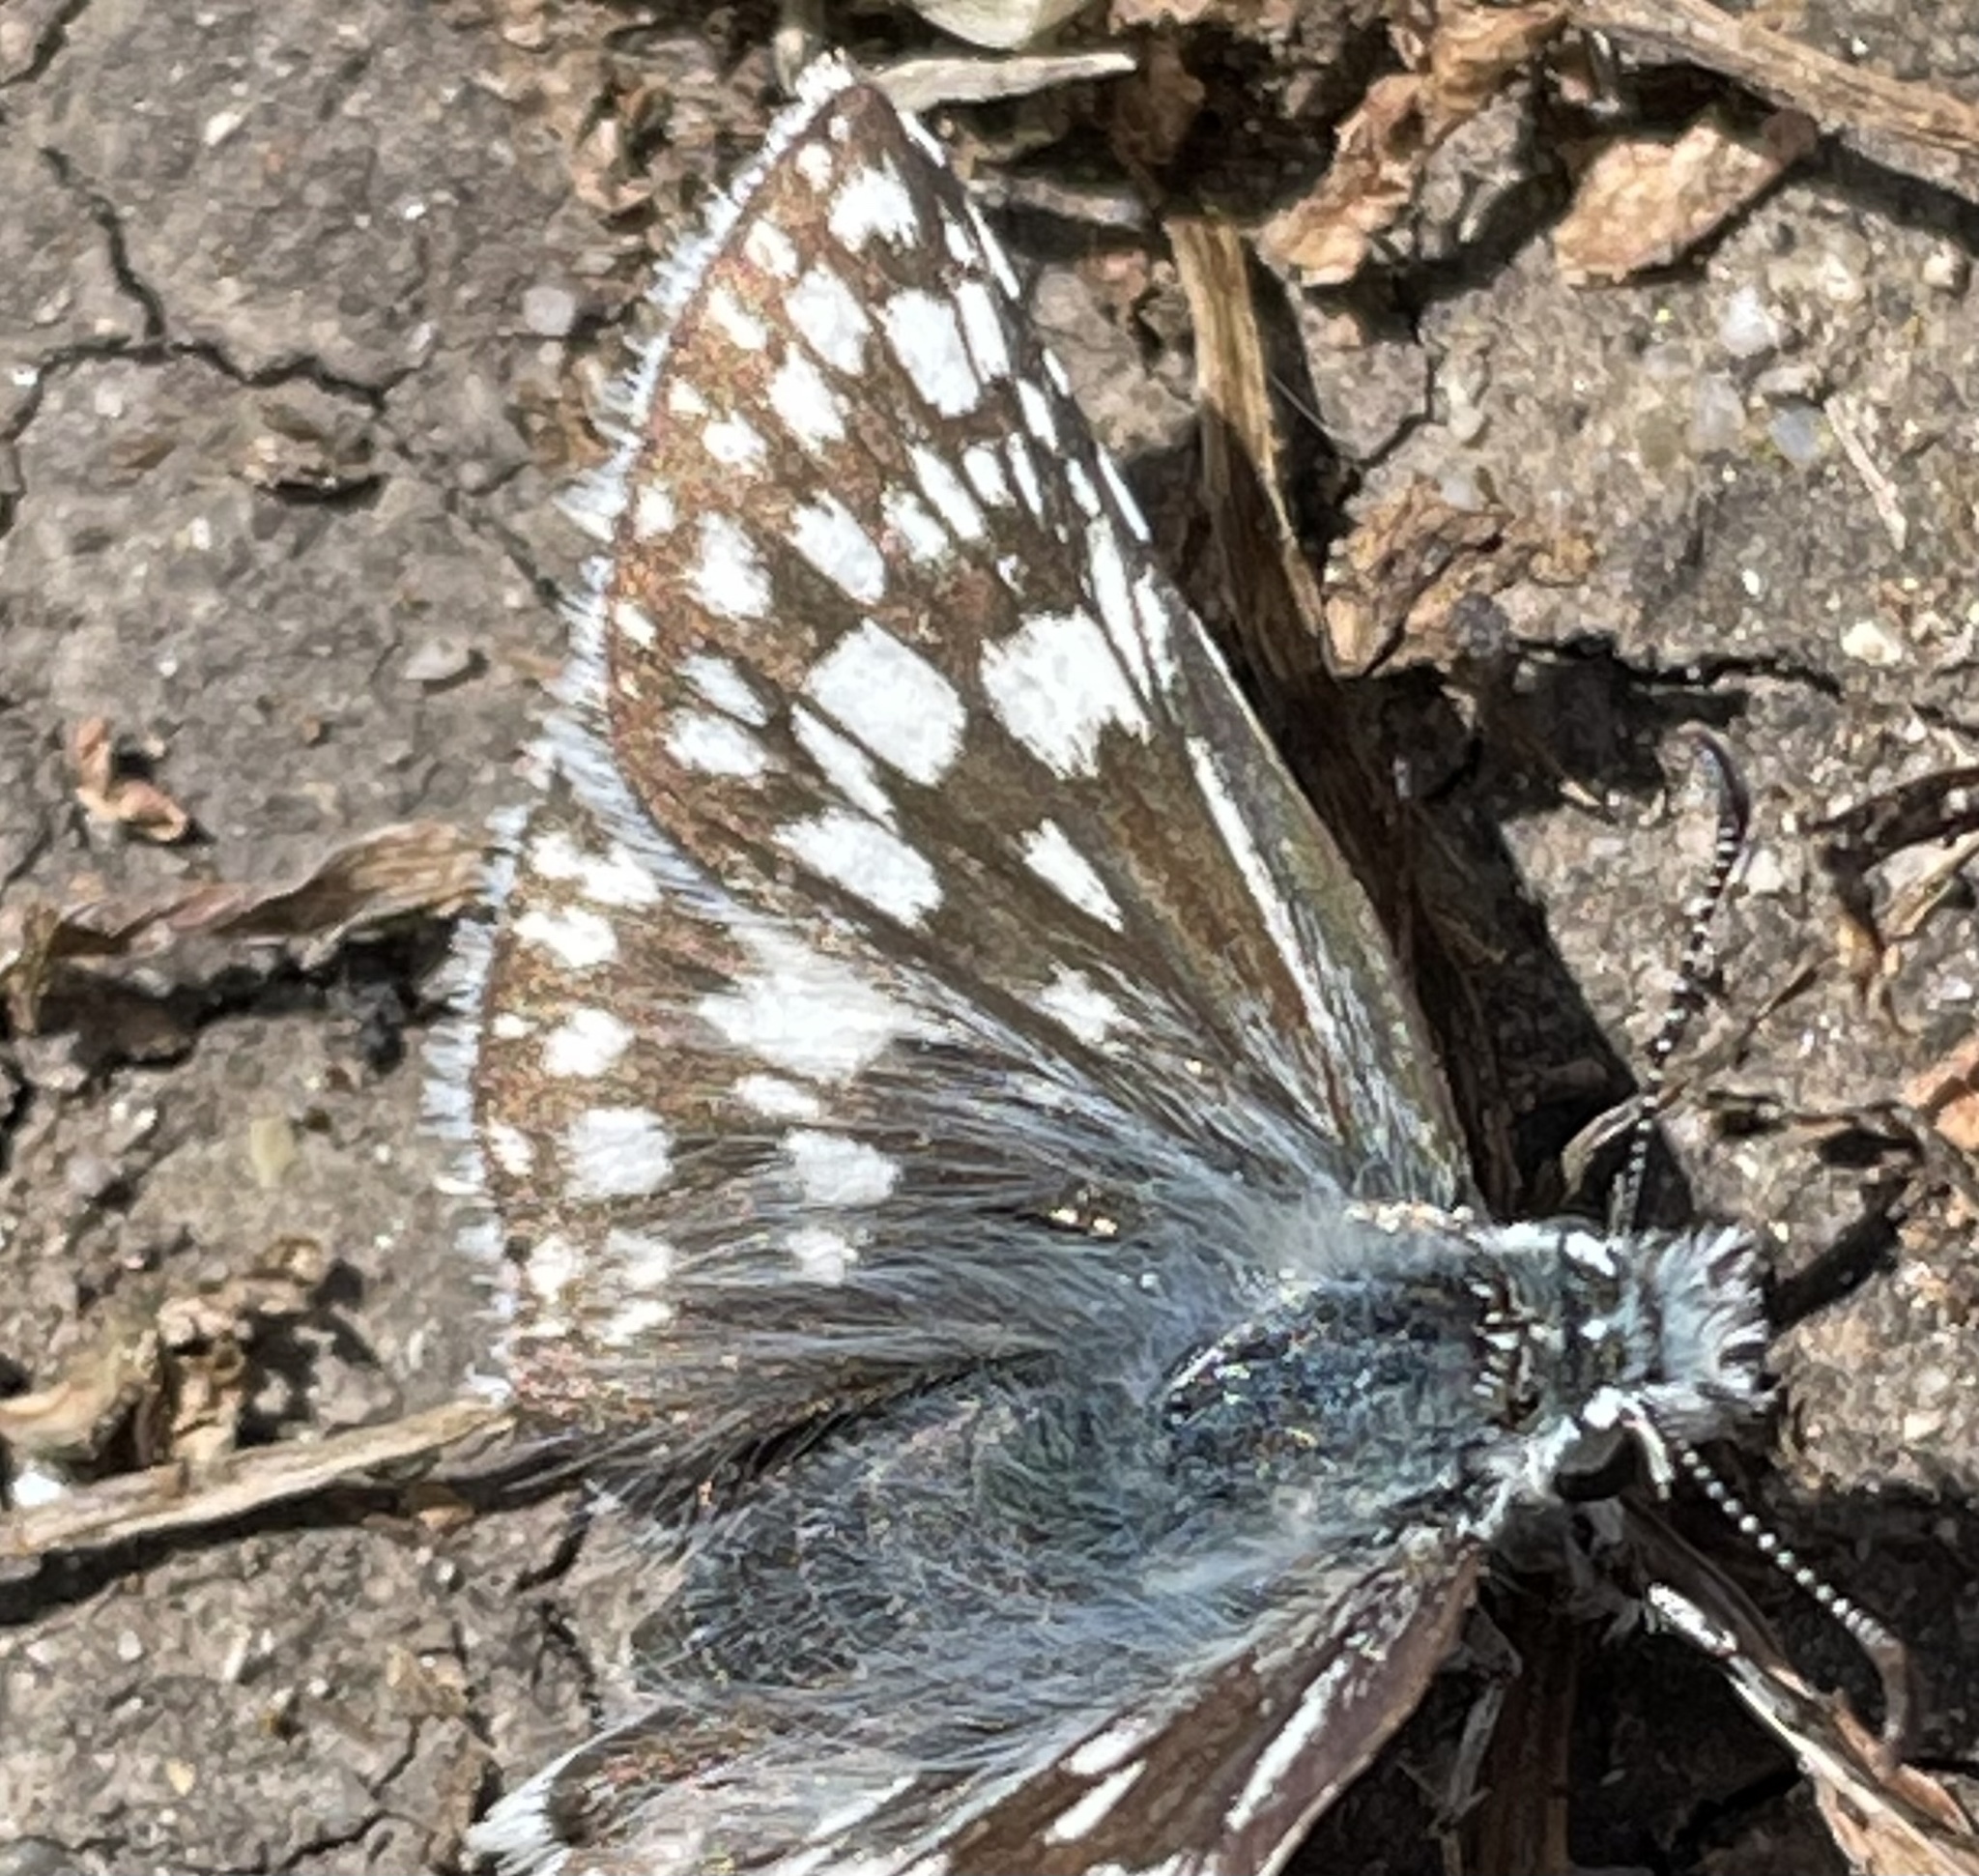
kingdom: Animalia
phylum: Arthropoda
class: Insecta
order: Lepidoptera
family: Hesperiidae
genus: Burnsius
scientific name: Burnsius communis
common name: Common checkered-skipper
